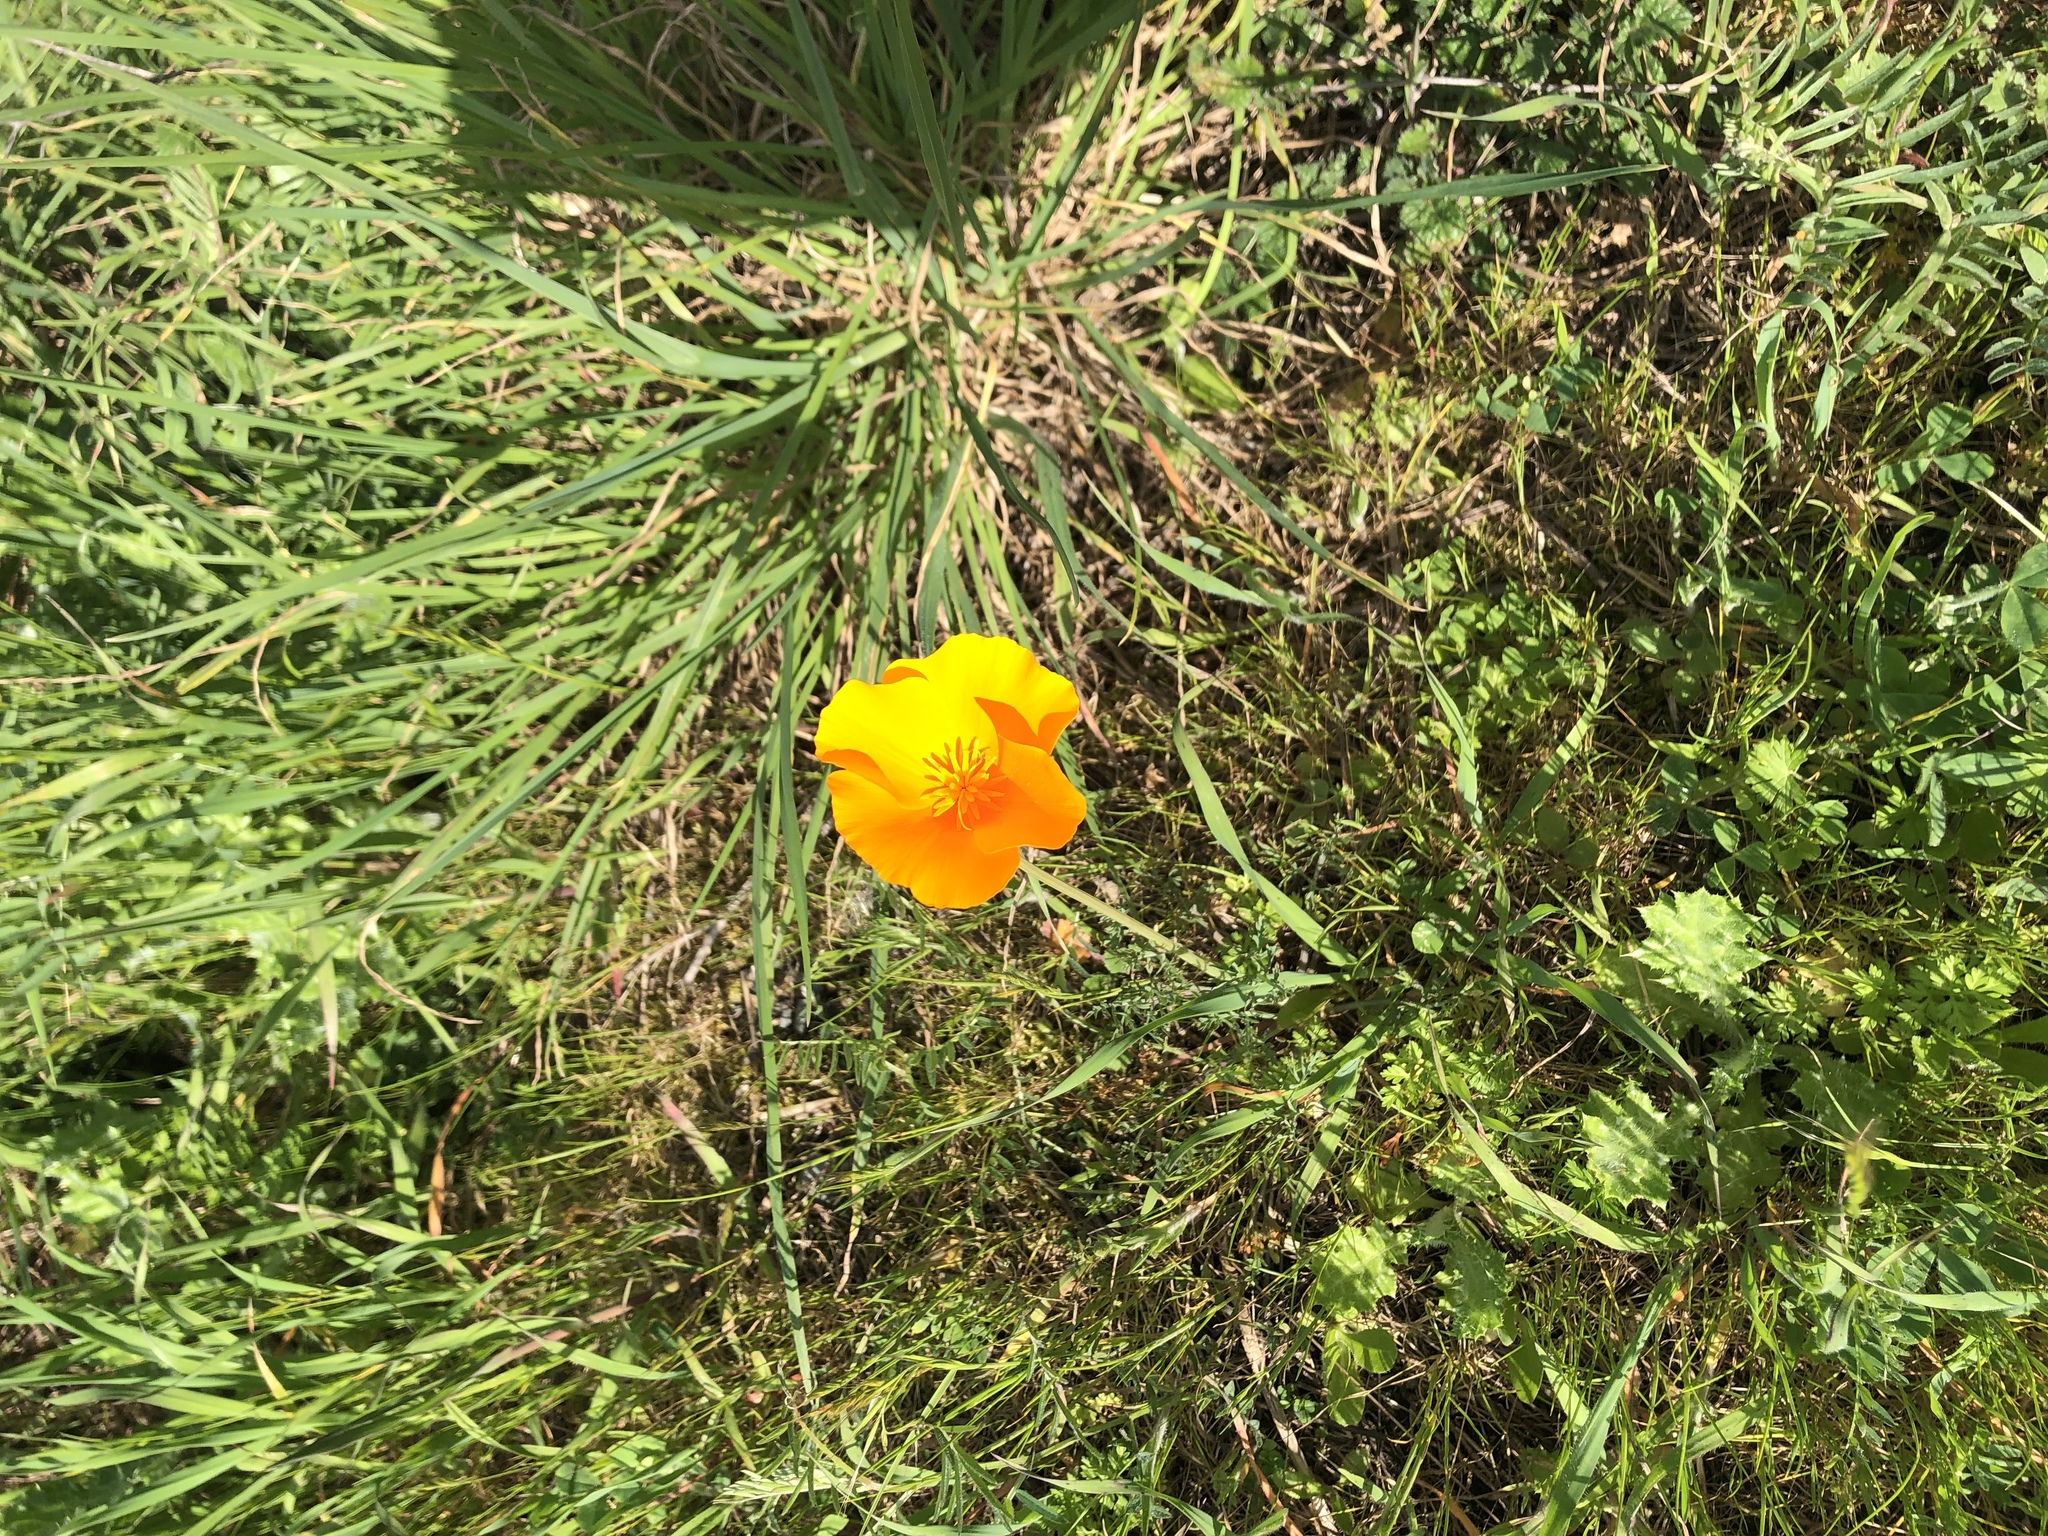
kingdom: Plantae
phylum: Tracheophyta
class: Magnoliopsida
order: Ranunculales
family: Papaveraceae
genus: Eschscholzia
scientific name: Eschscholzia californica
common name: California poppy
